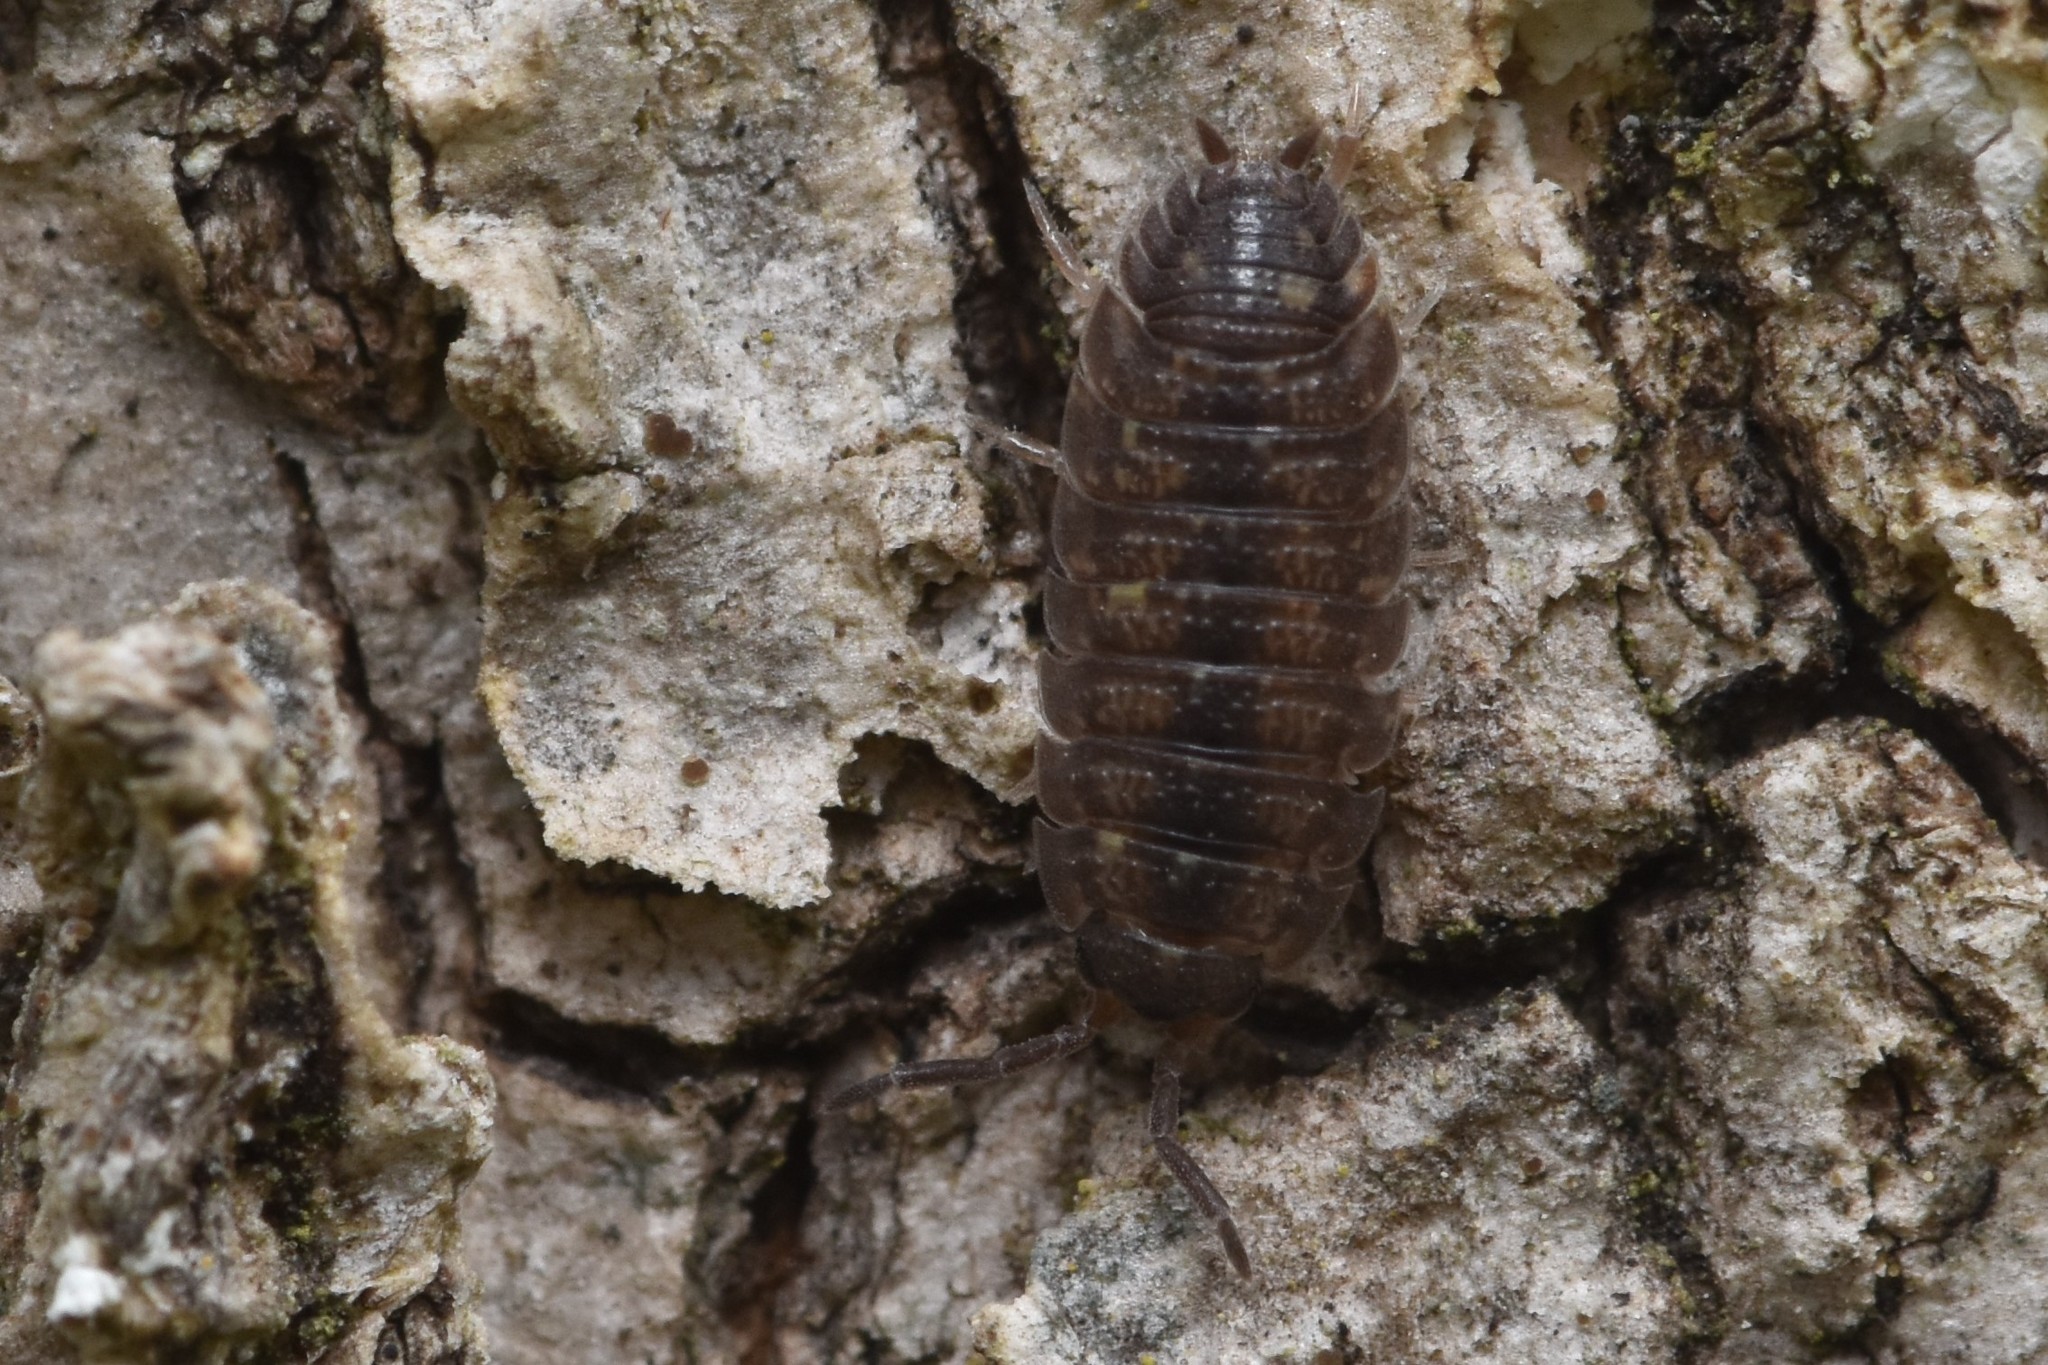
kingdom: Animalia
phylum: Arthropoda
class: Malacostraca
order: Isopoda
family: Porcellionidae
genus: Porcellio
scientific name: Porcellio scaber
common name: Common rough woodlouse
